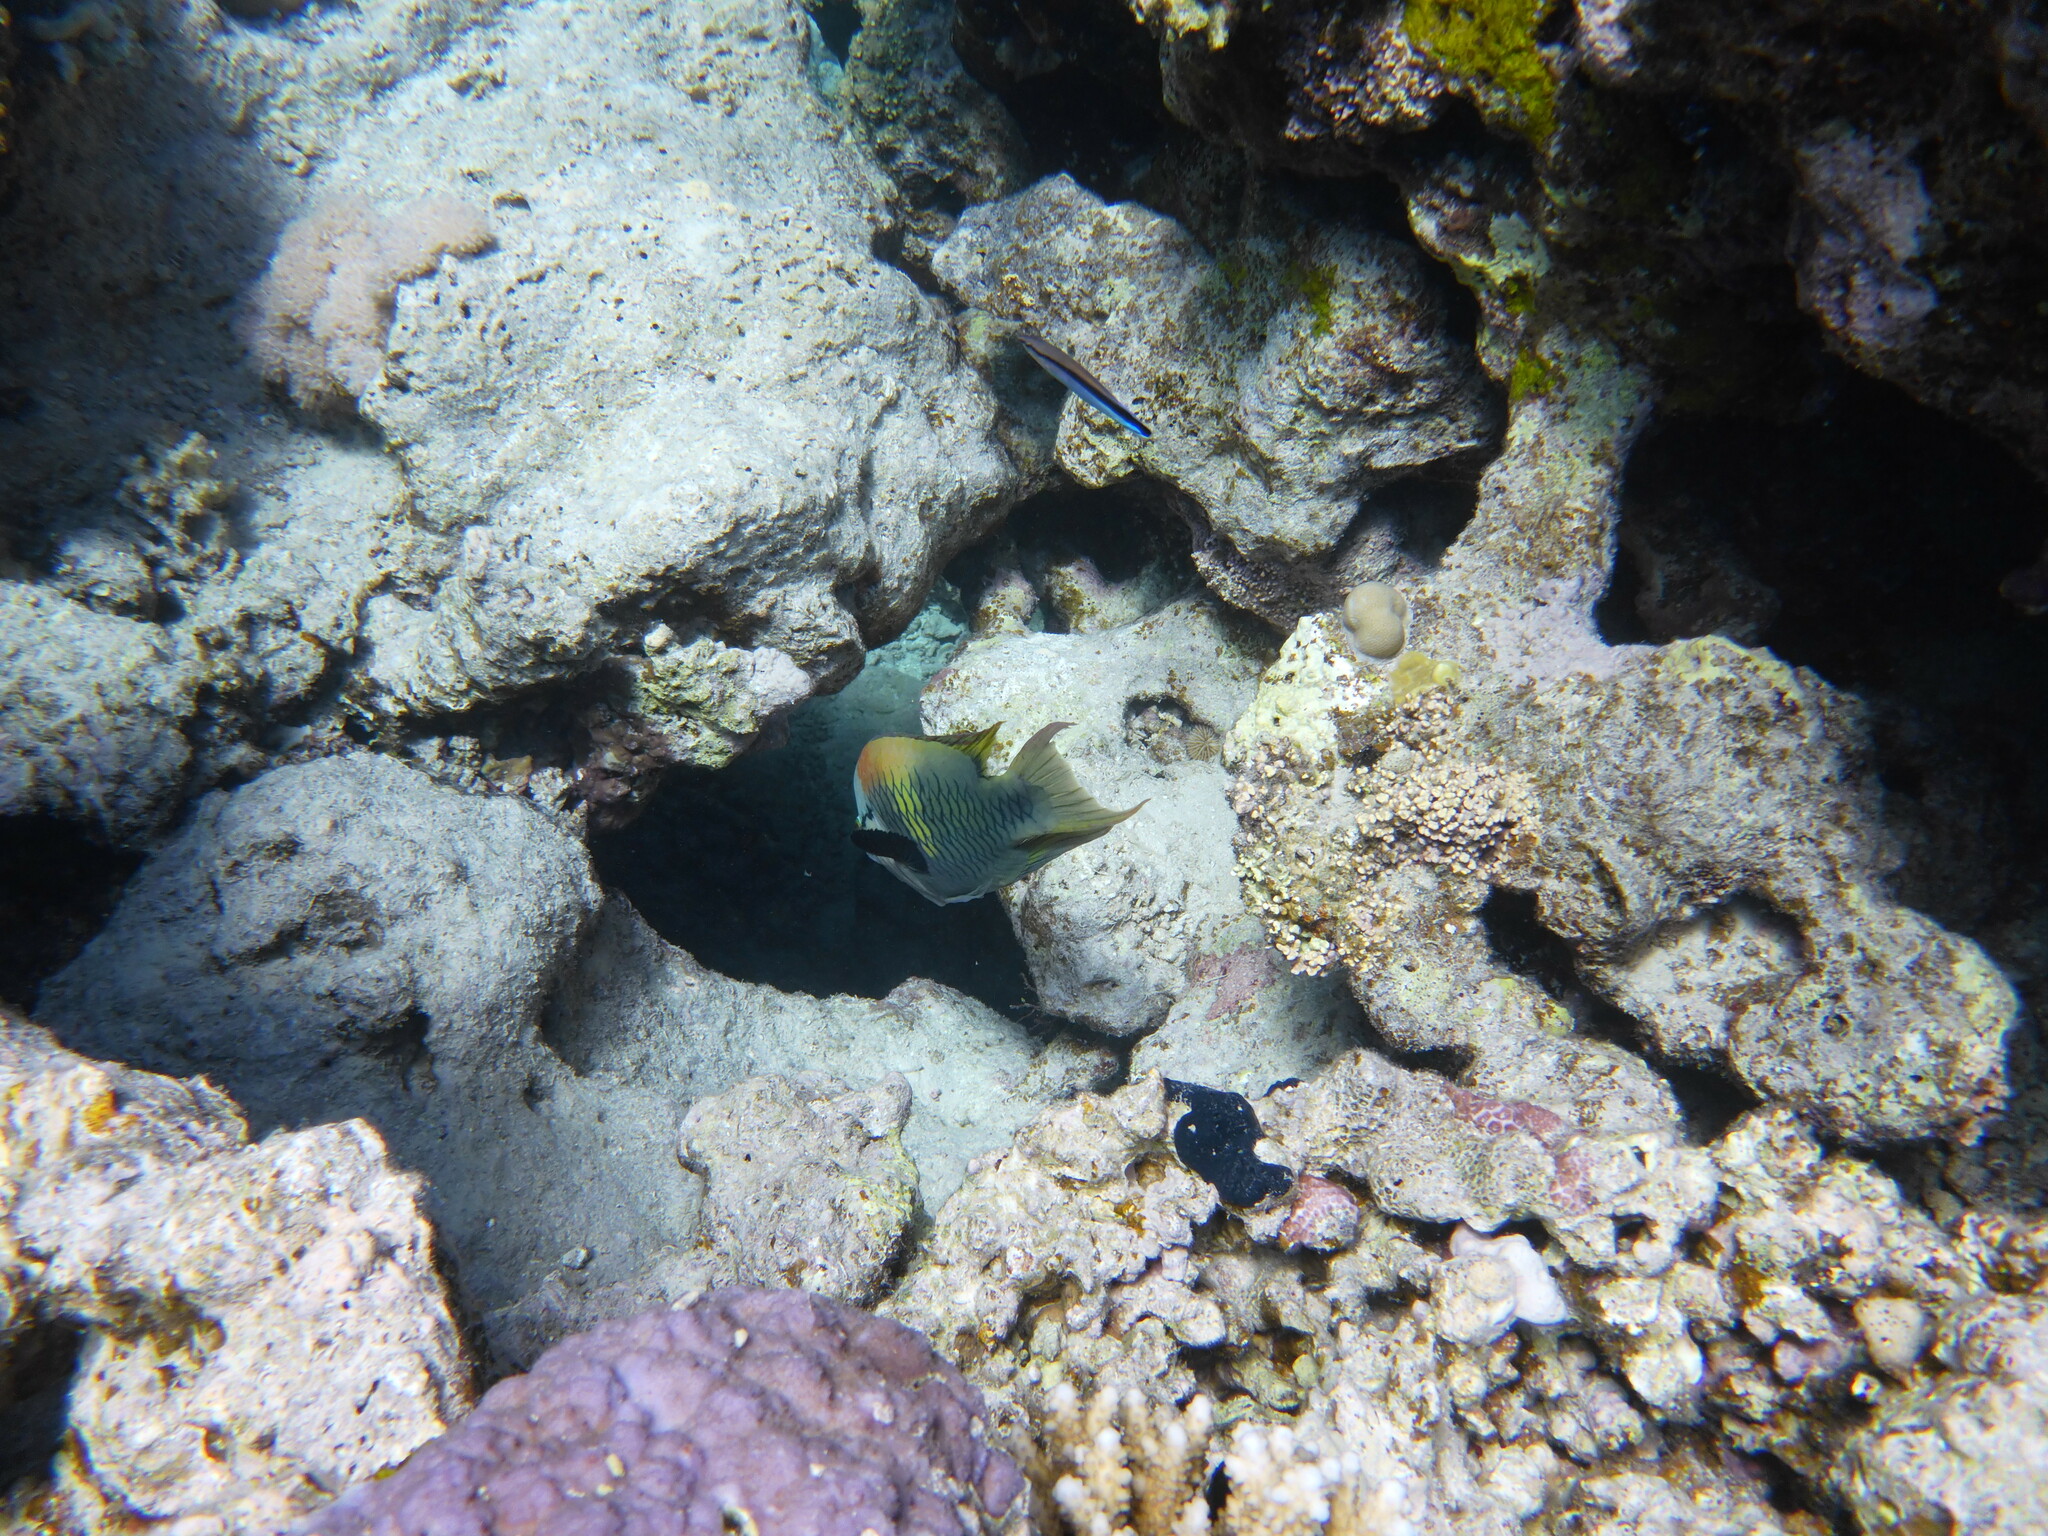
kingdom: Animalia
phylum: Chordata
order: Perciformes
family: Labridae
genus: Epibulus
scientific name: Epibulus insidiator
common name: Slingjaw wrasse
